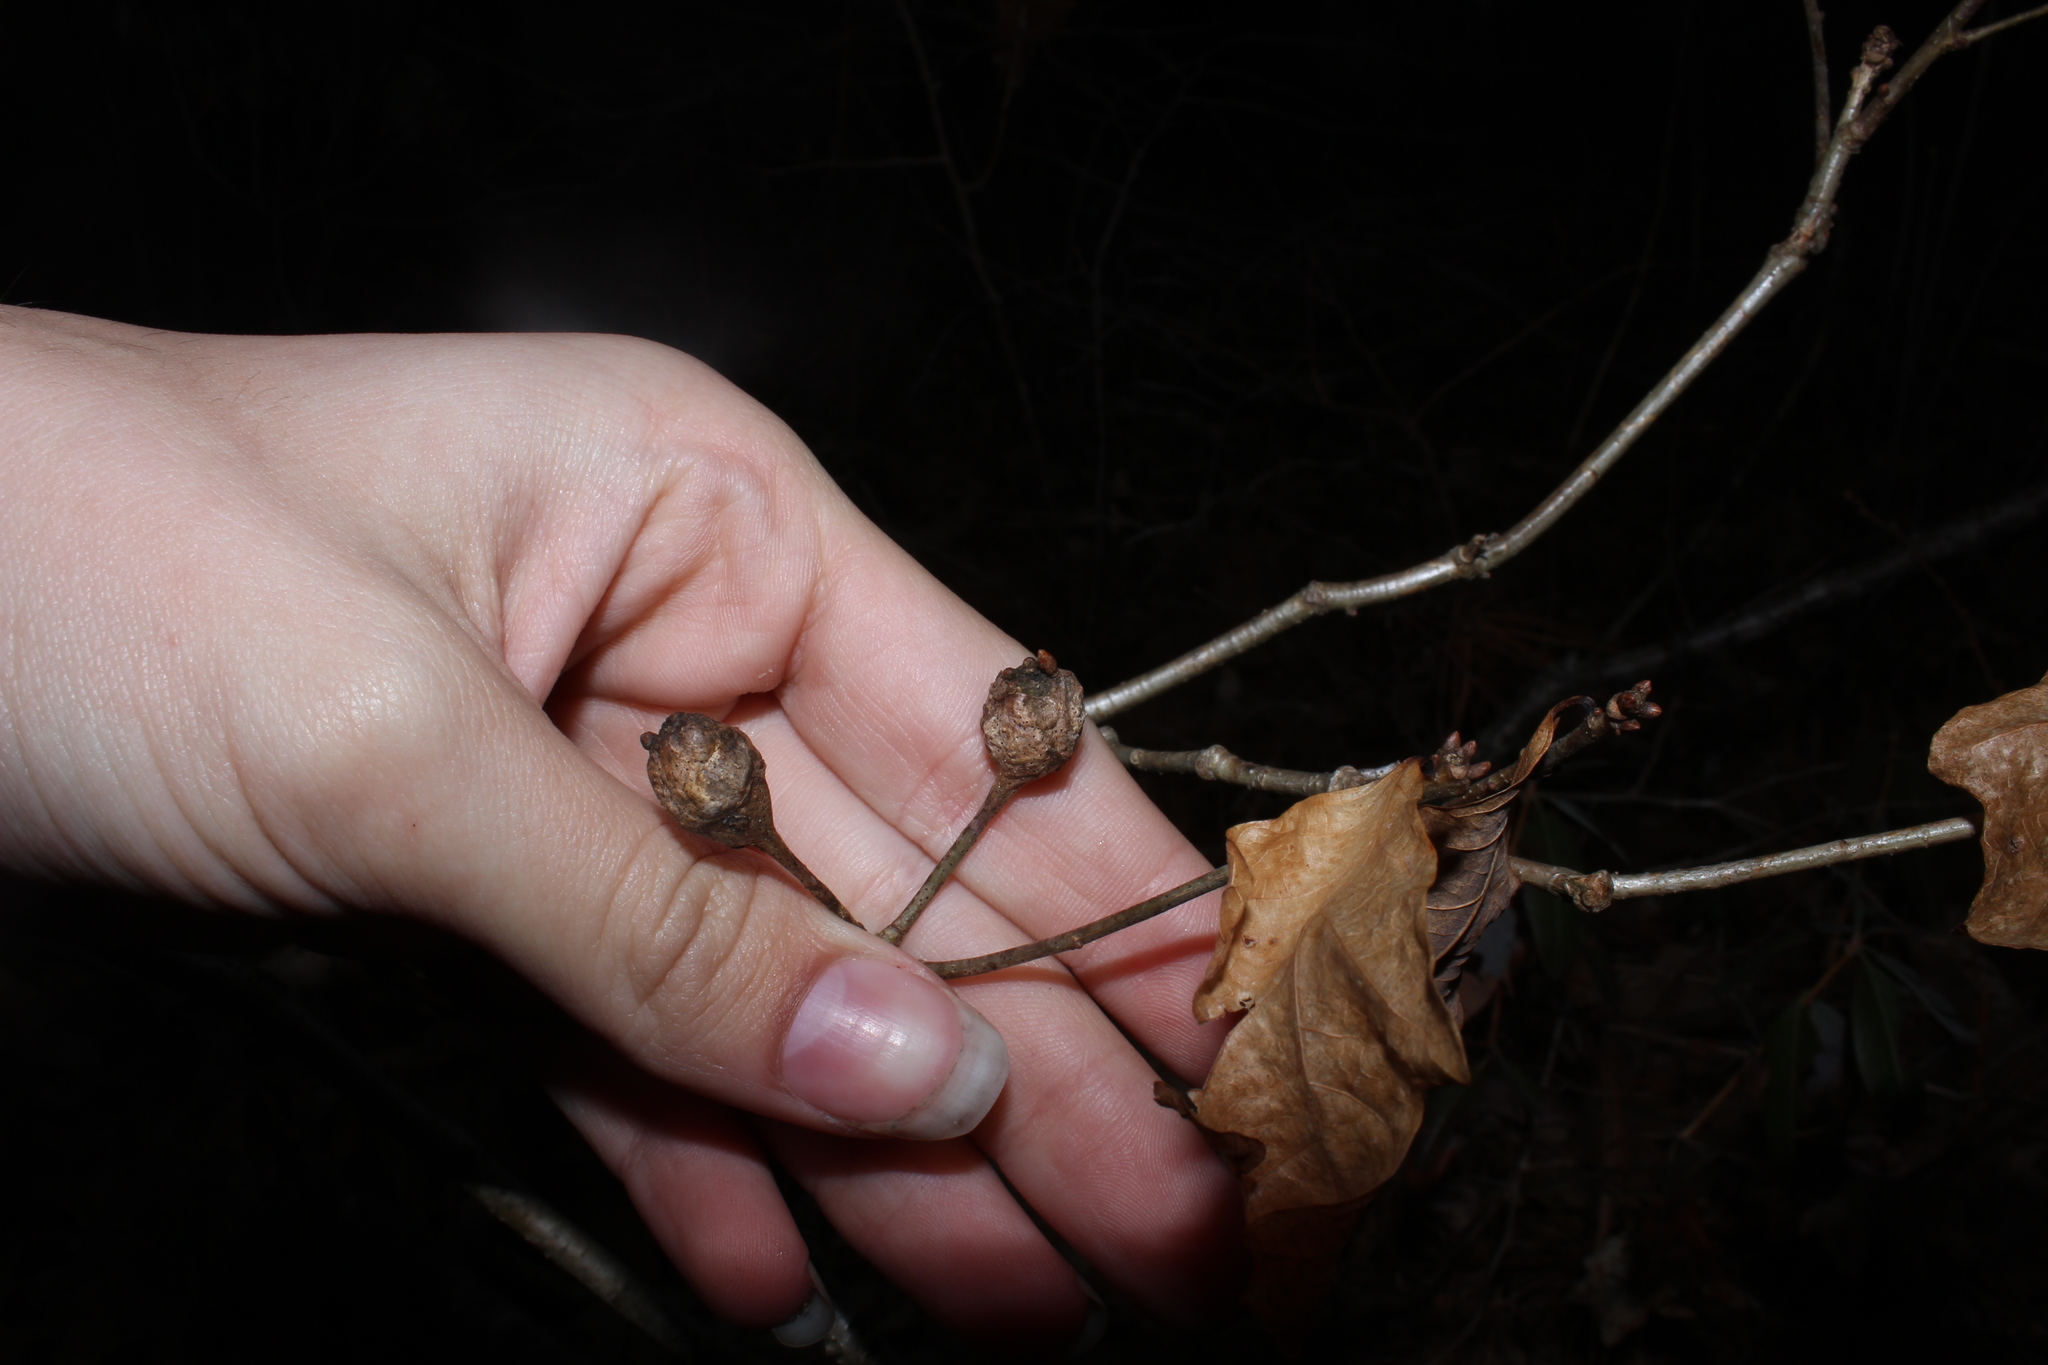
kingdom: Animalia
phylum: Arthropoda
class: Insecta
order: Hymenoptera
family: Cynipidae
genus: Callirhytis
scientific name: Callirhytis clavula
